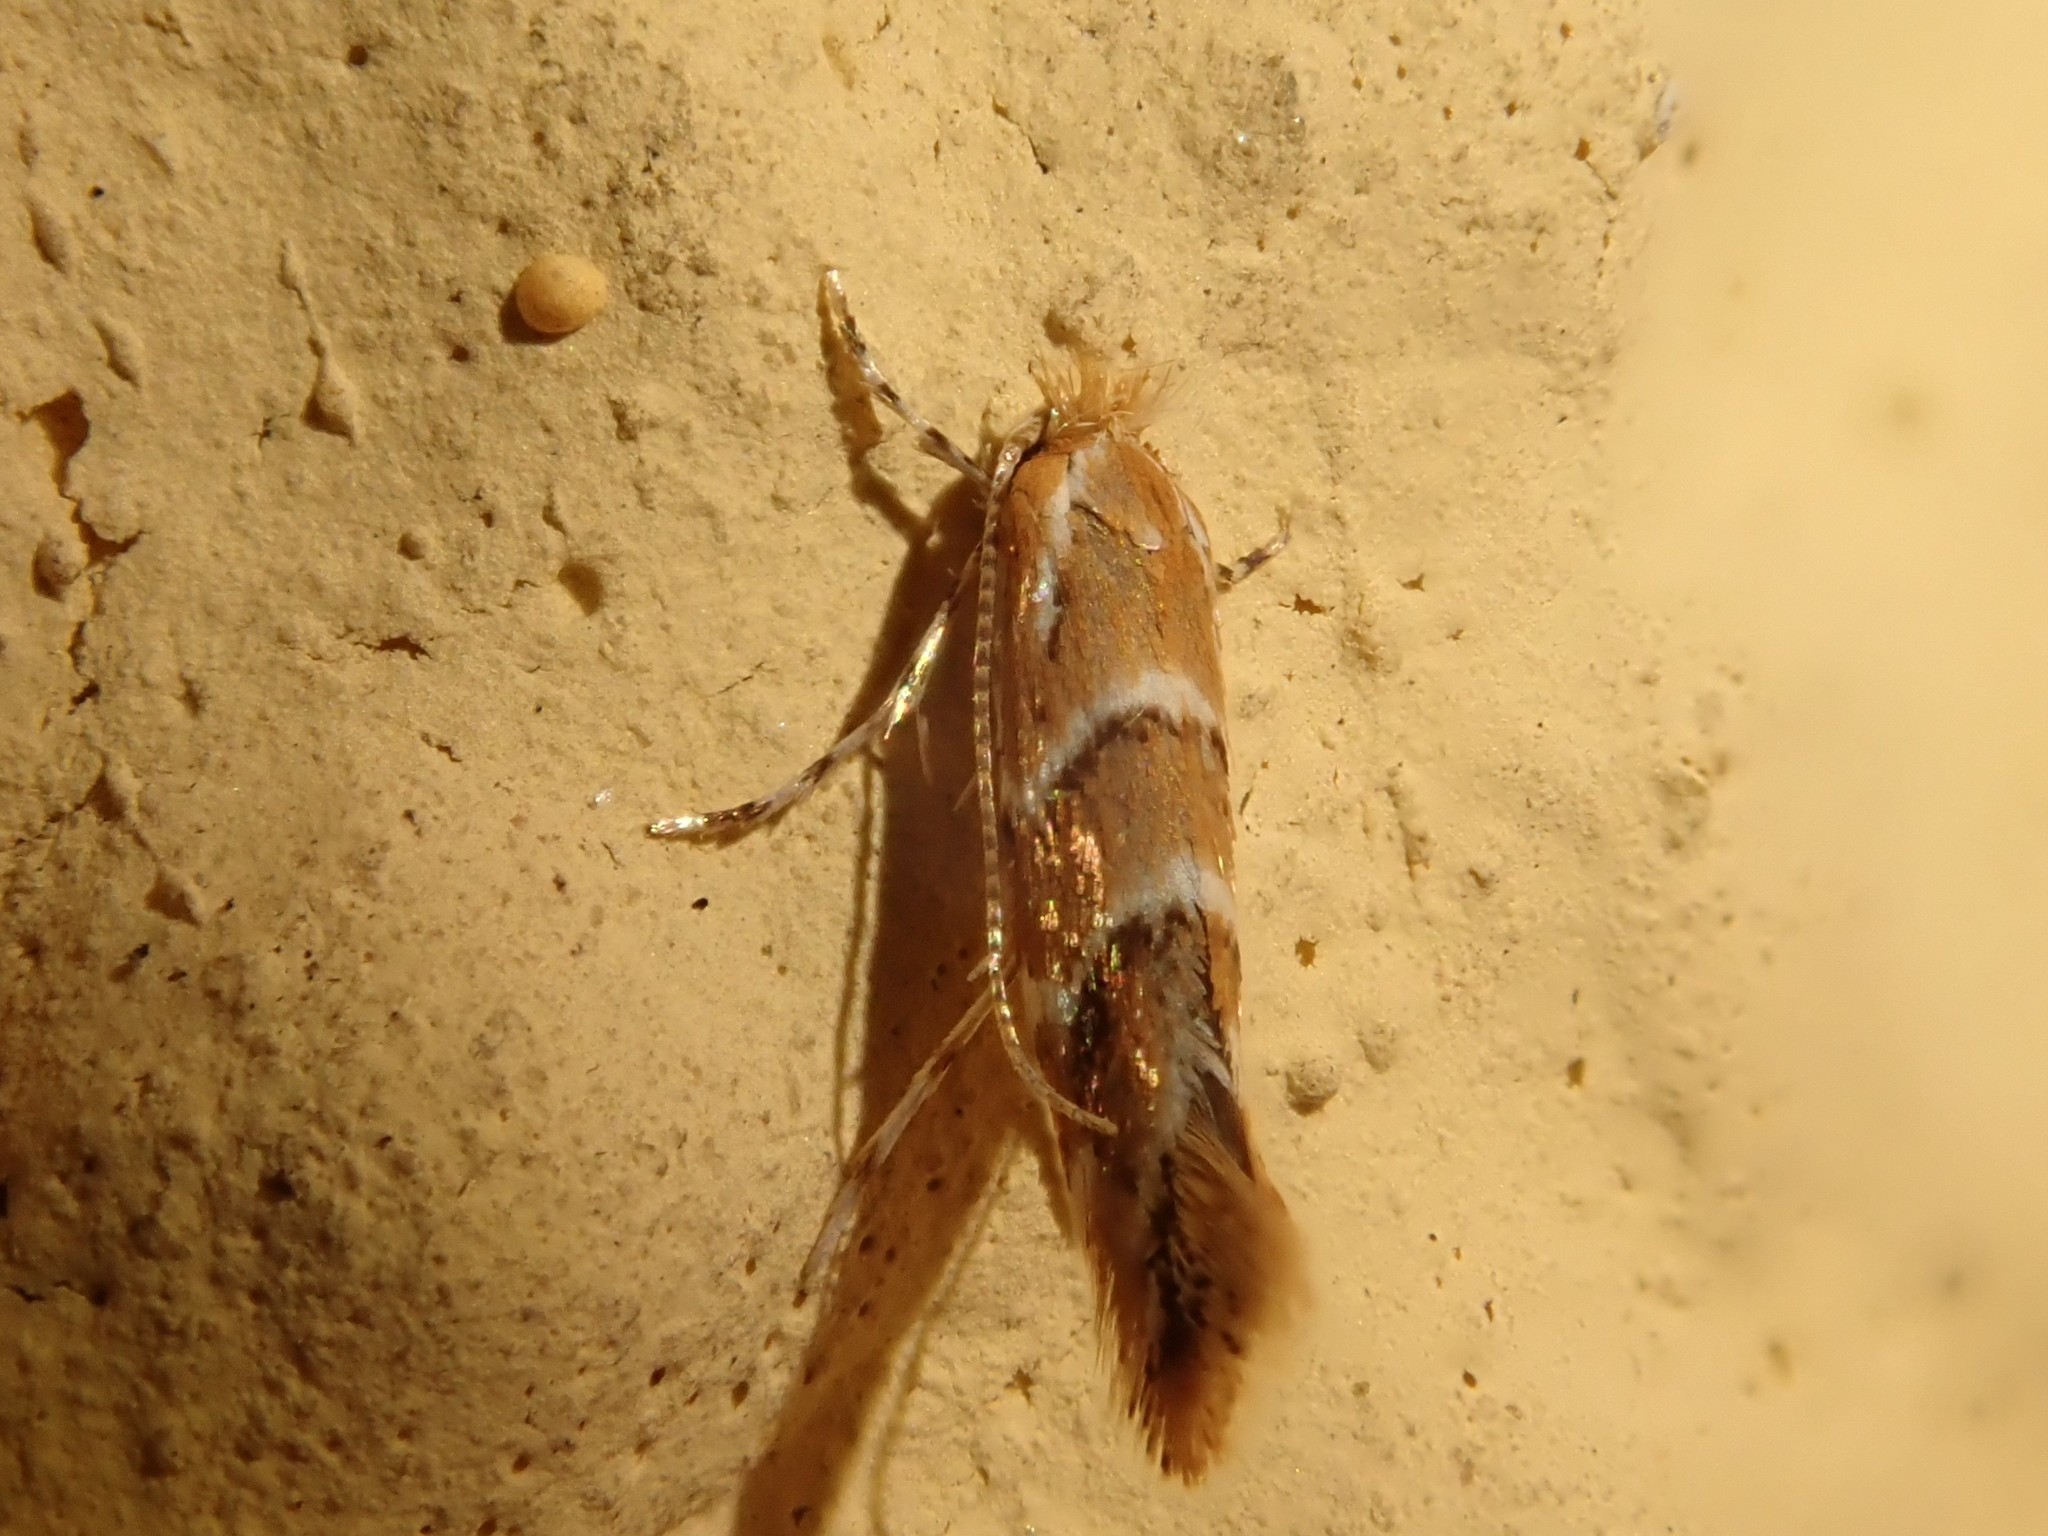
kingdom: Animalia
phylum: Arthropoda
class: Insecta
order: Lepidoptera
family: Gracillariidae
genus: Cameraria
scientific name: Cameraria ohridella
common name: Horse-chestnut leaf-miner
